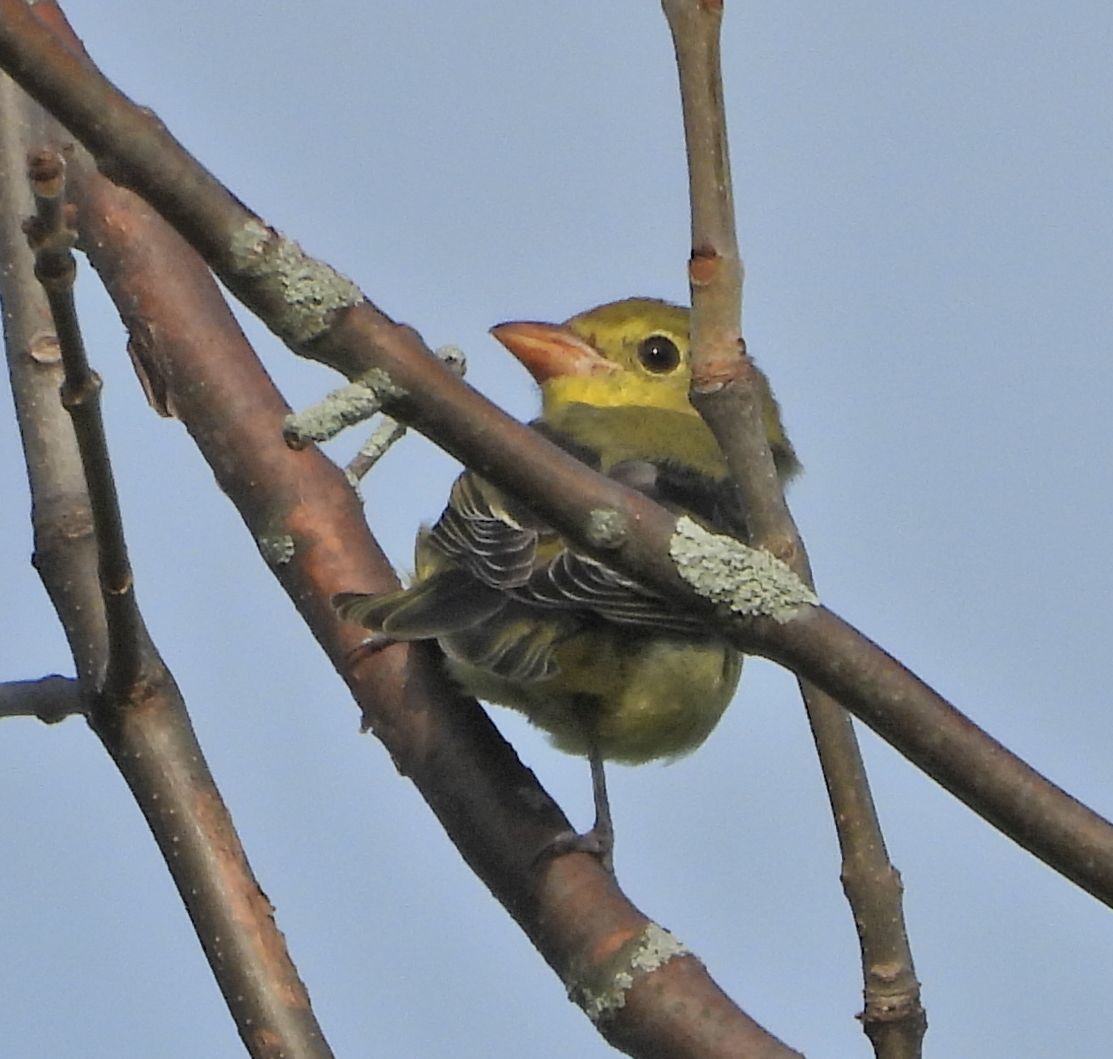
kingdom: Animalia
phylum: Chordata
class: Aves
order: Passeriformes
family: Cardinalidae
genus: Piranga
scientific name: Piranga olivacea
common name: Scarlet tanager
